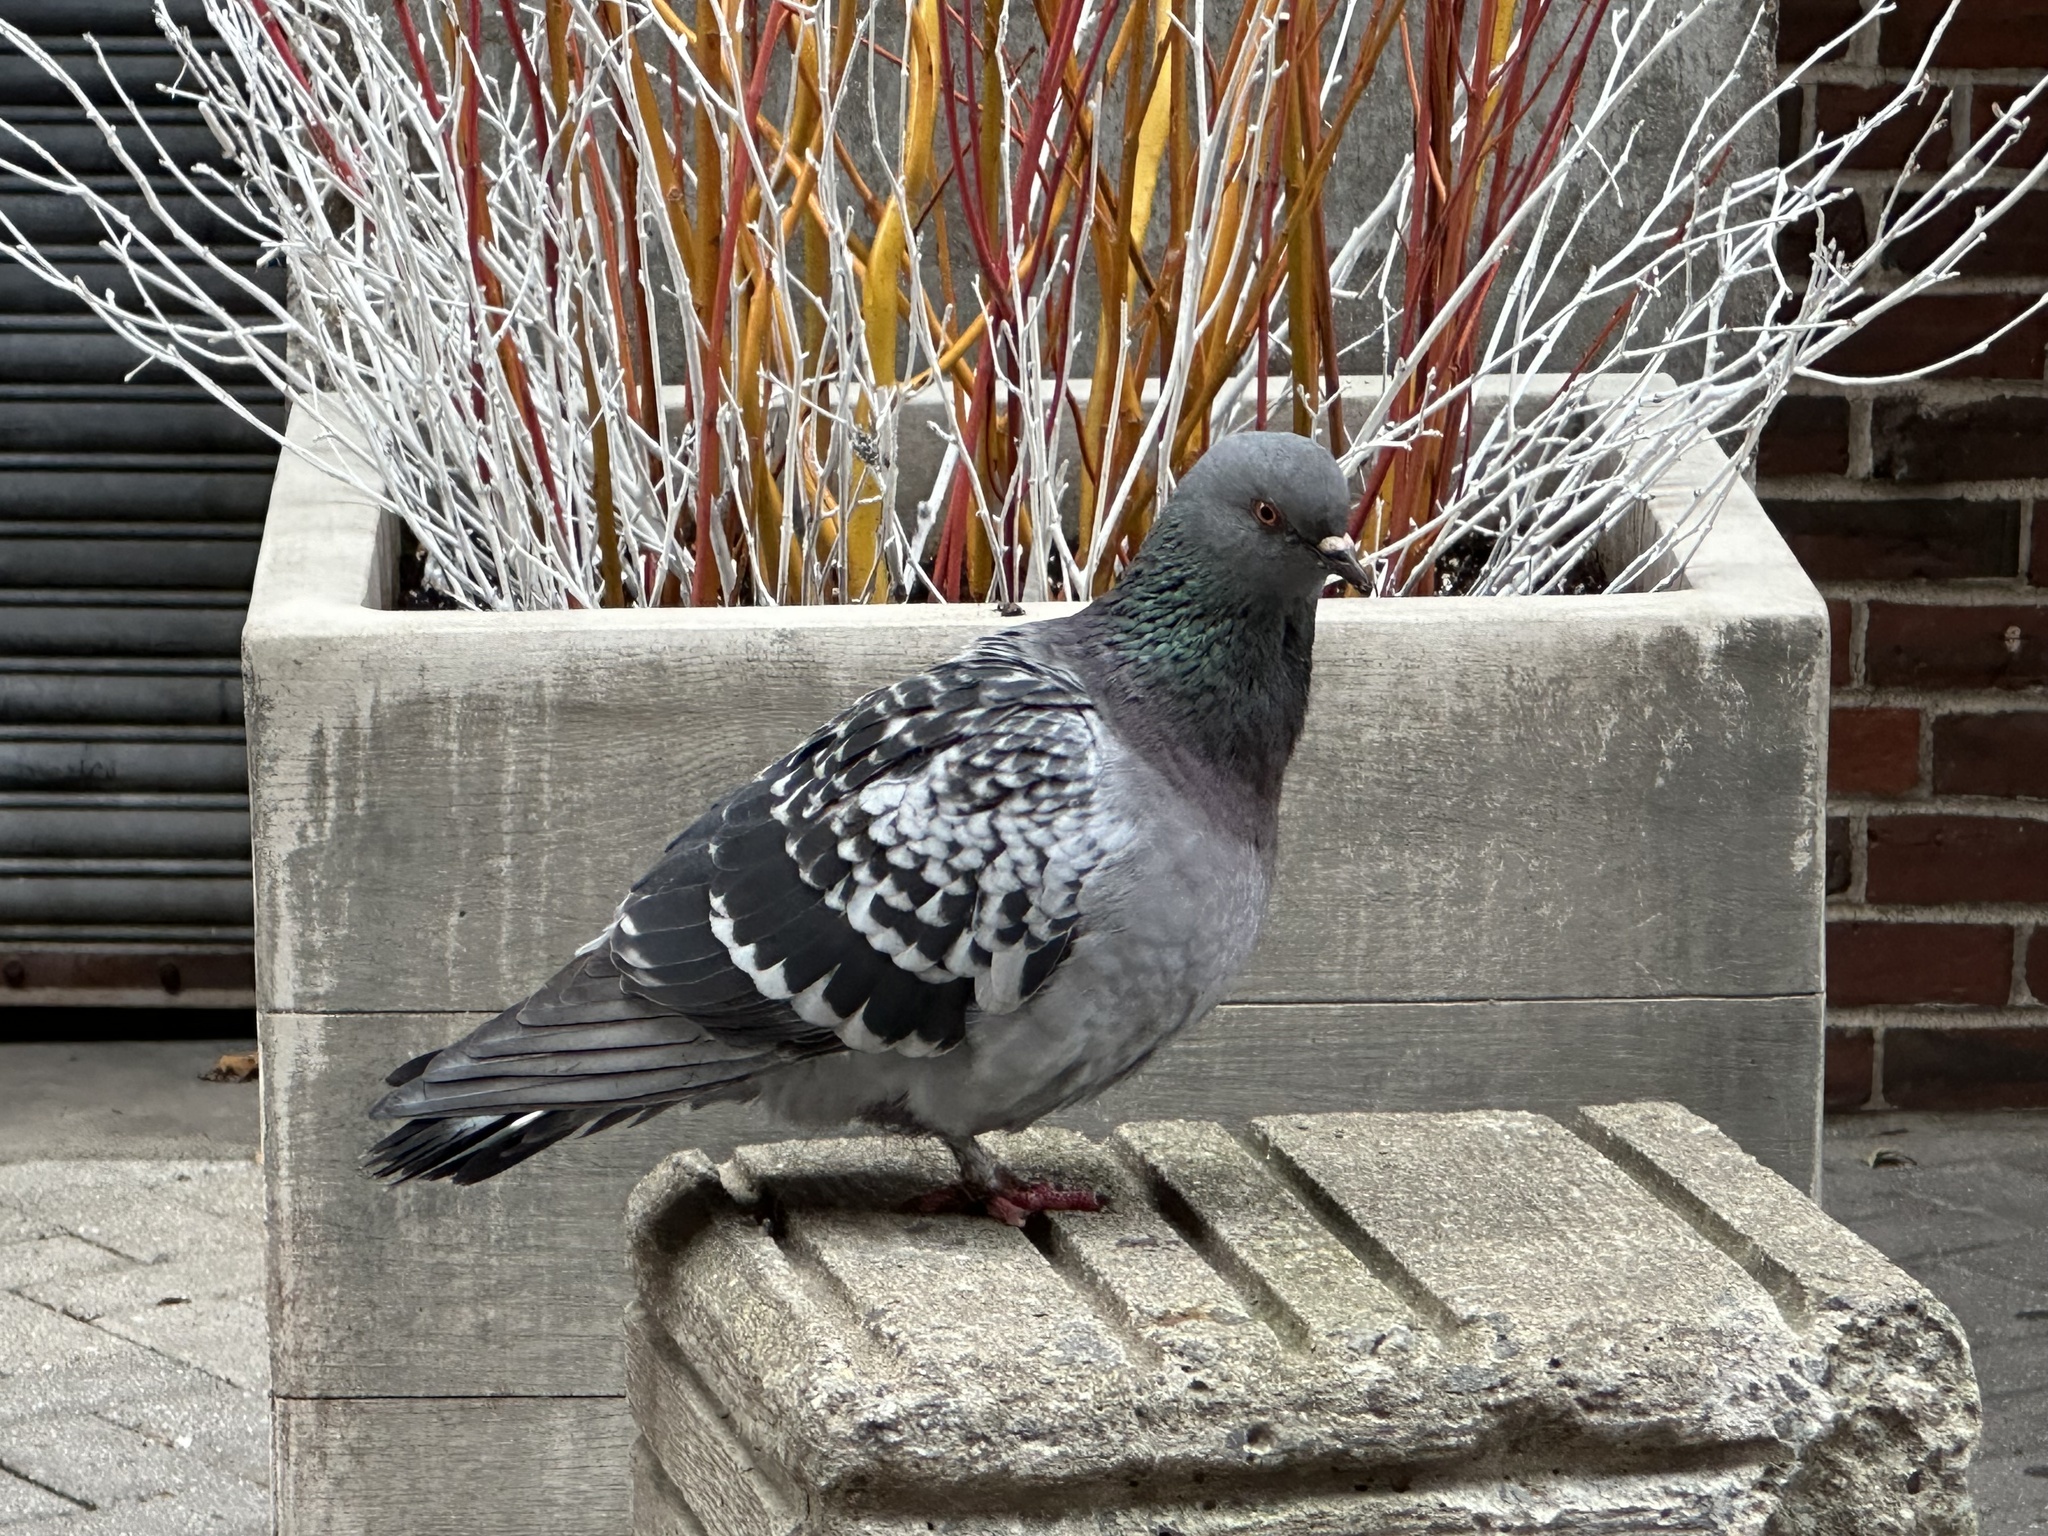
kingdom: Animalia
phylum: Chordata
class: Aves
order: Columbiformes
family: Columbidae
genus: Columba
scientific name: Columba livia
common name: Rock pigeon
